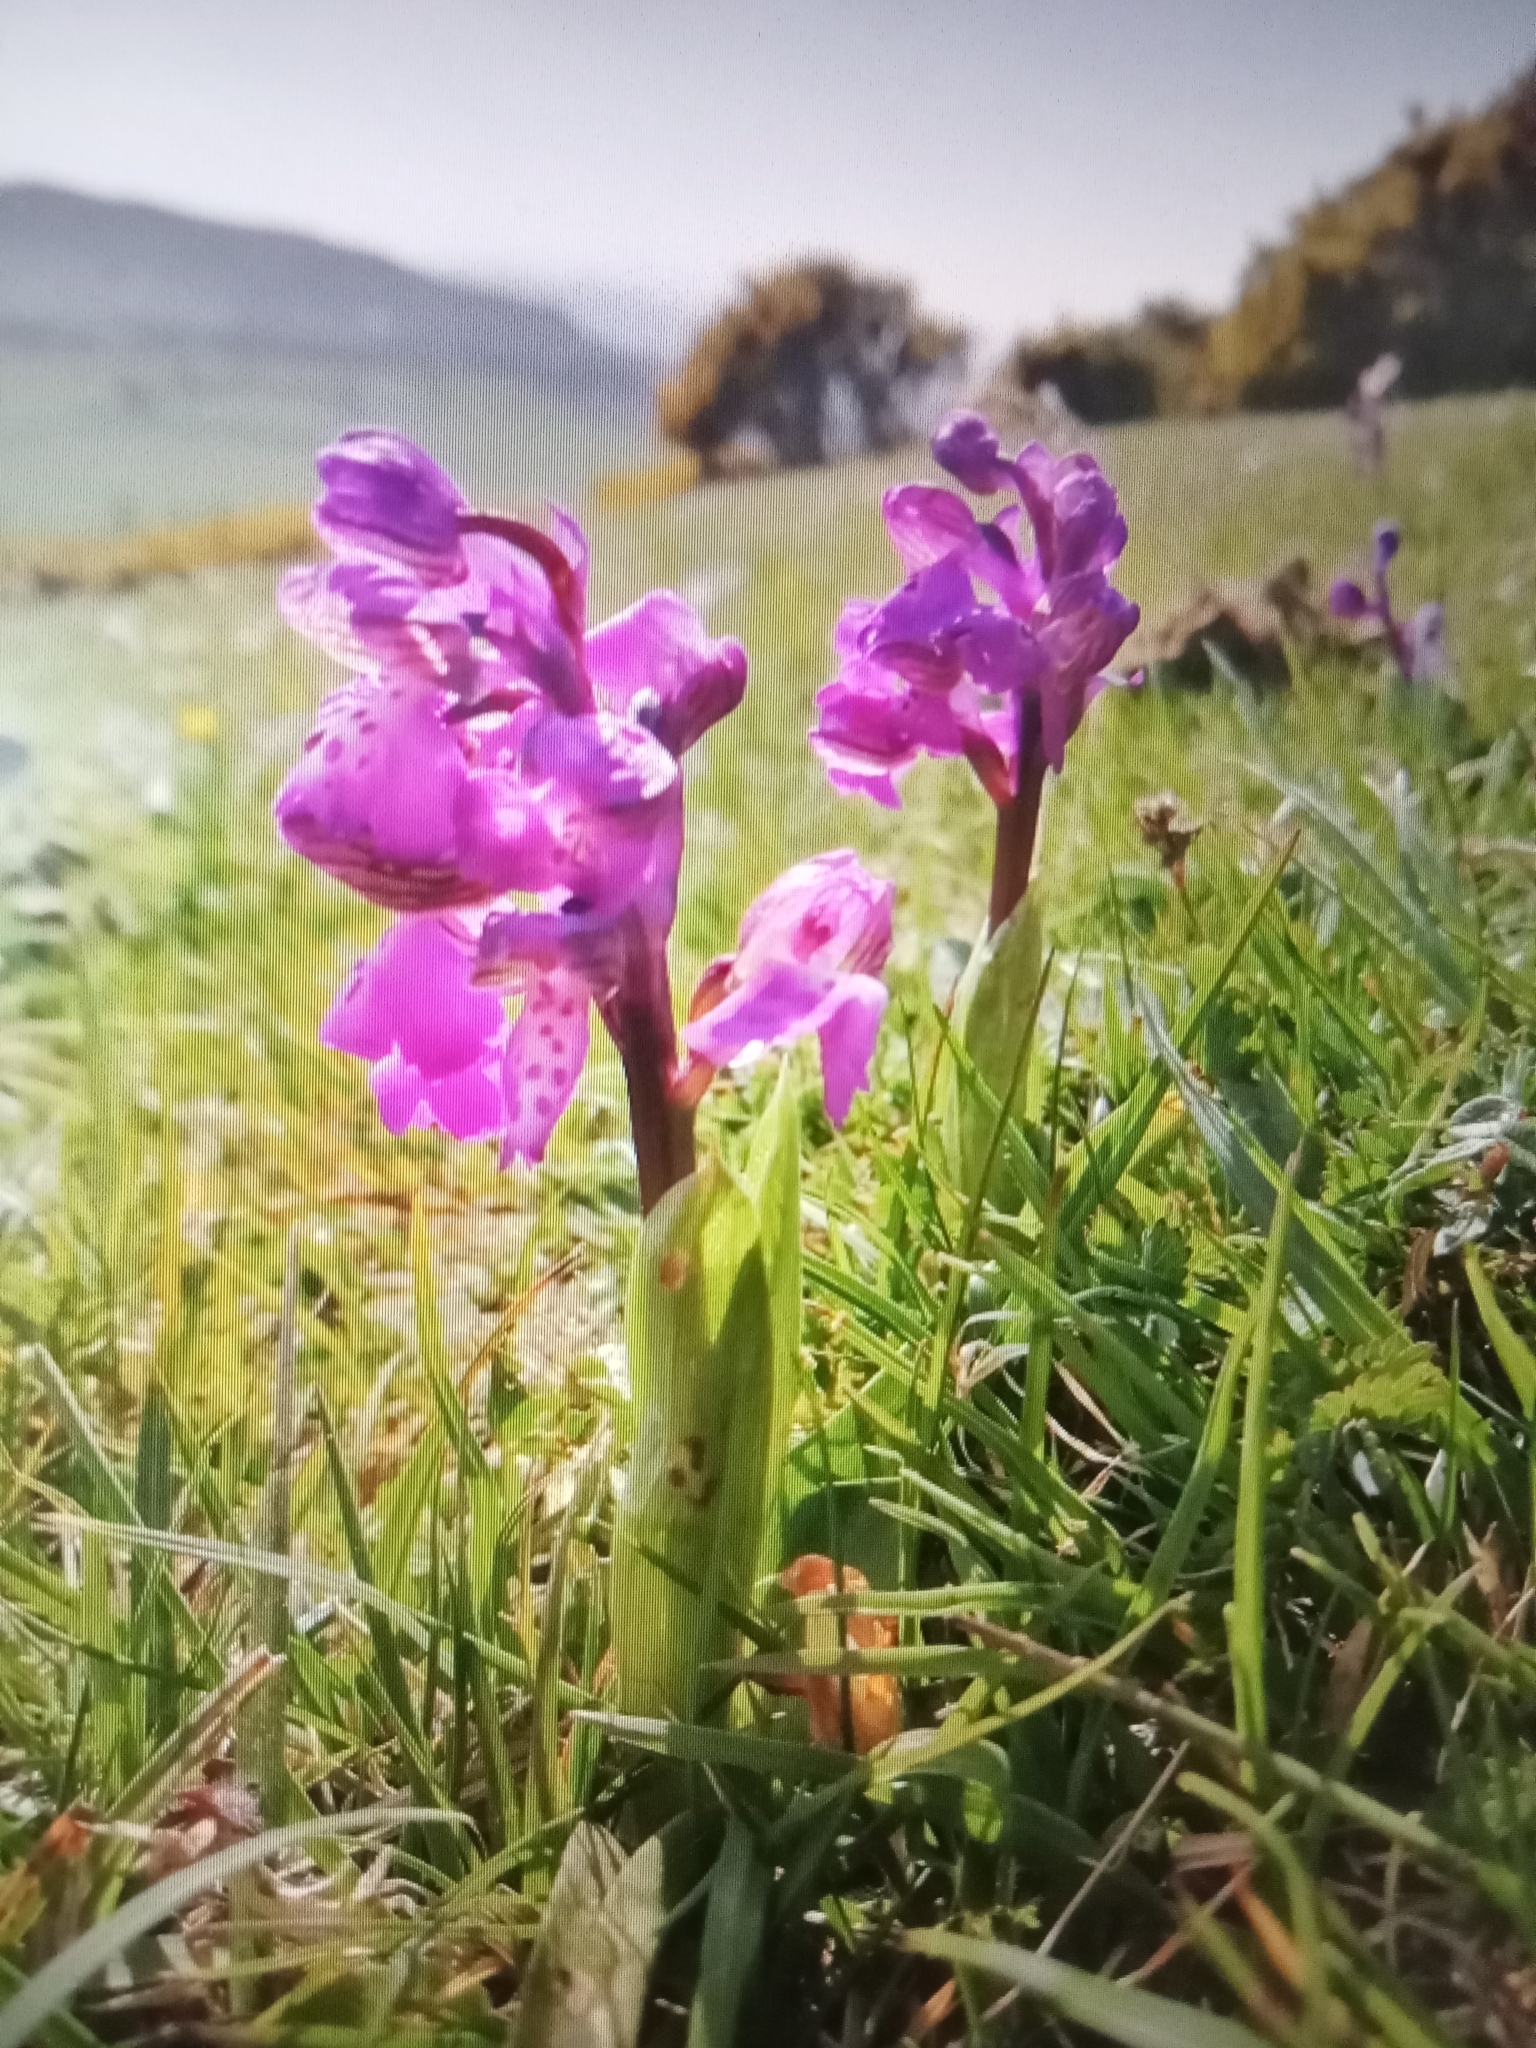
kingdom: Plantae
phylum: Tracheophyta
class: Liliopsida
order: Asparagales
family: Orchidaceae
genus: Anacamptis
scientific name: Anacamptis morio
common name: Green-winged orchid
